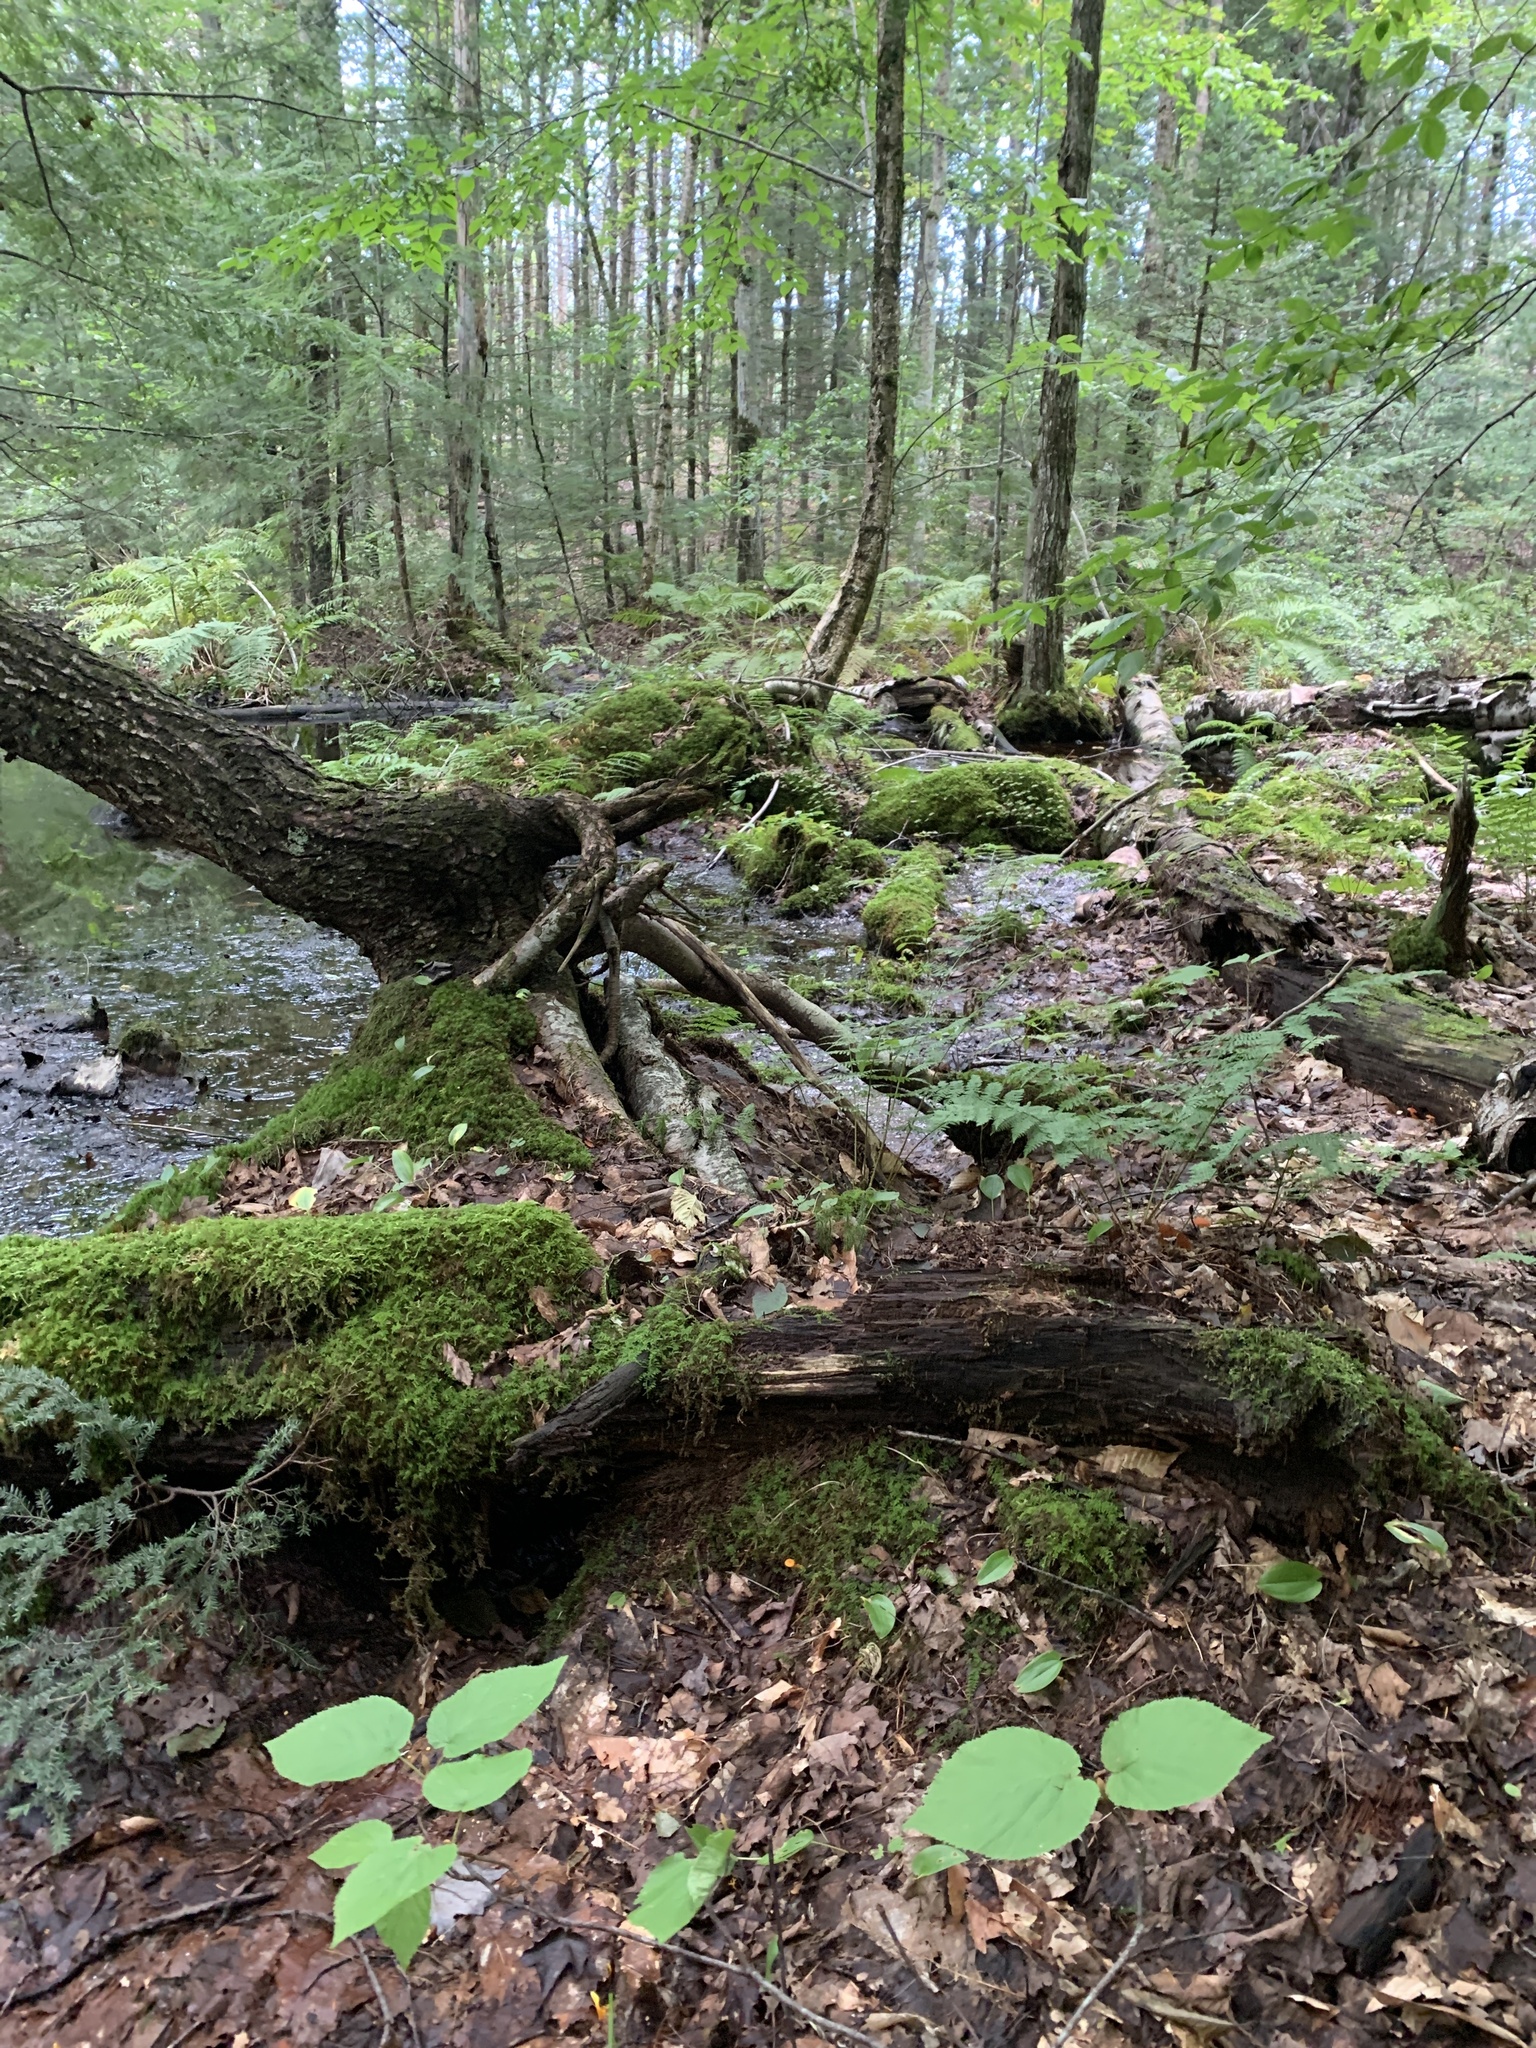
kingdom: Plantae
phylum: Tracheophyta
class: Magnoliopsida
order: Dipsacales
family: Viburnaceae
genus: Viburnum
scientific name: Viburnum lantanoides
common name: Hobblebush
